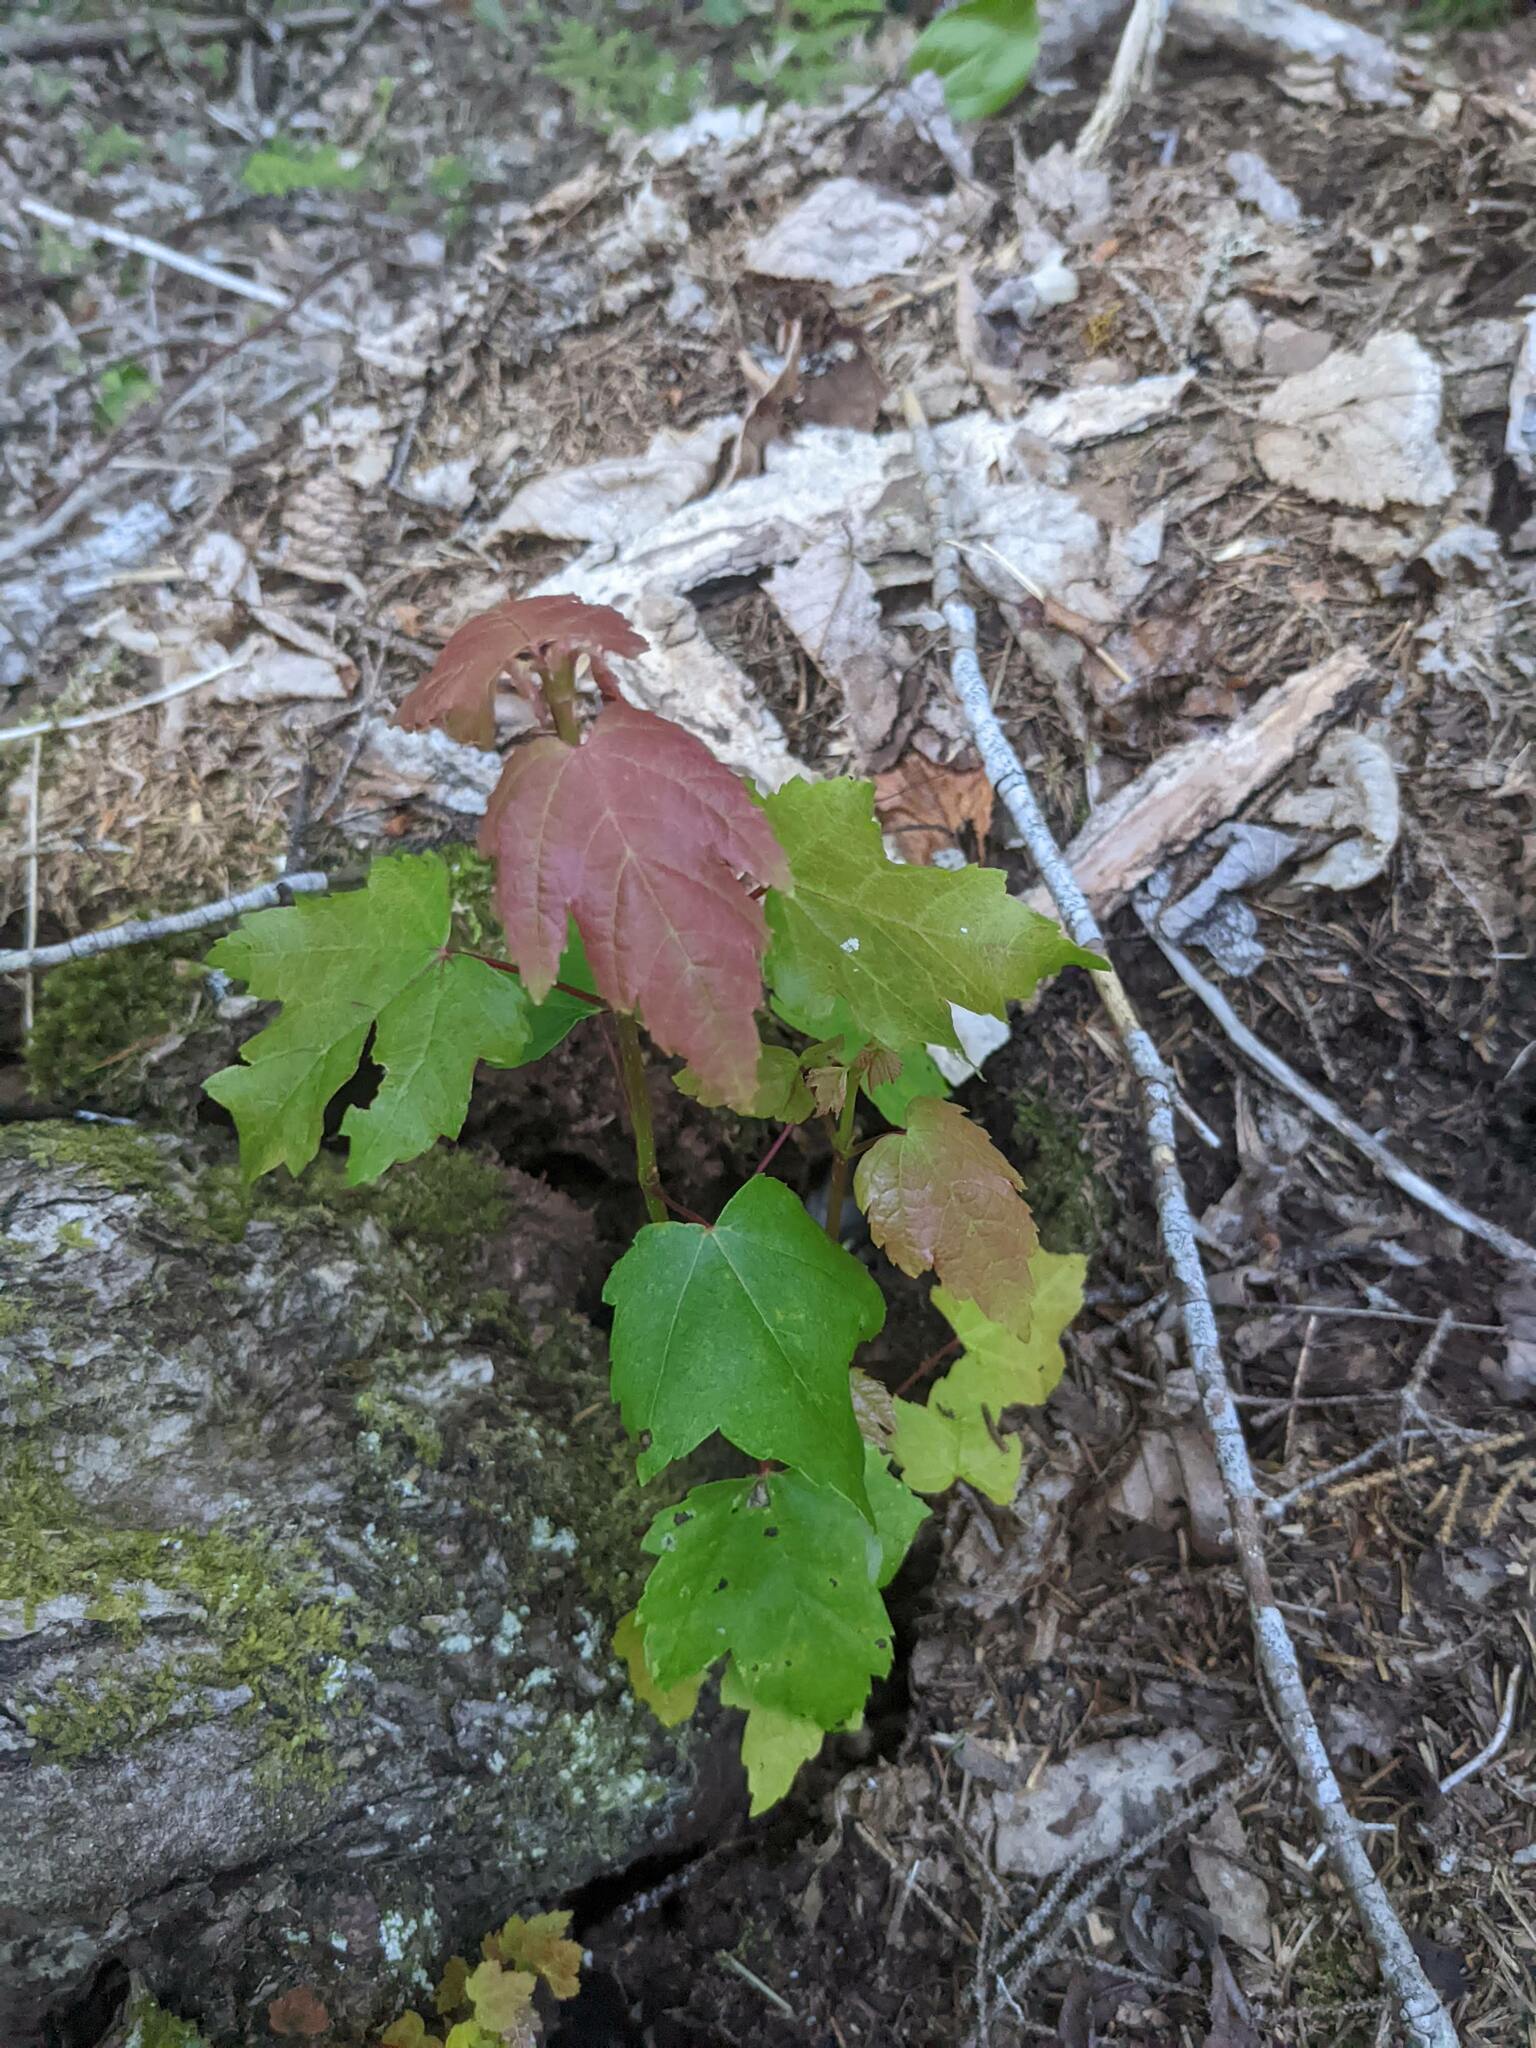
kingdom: Plantae
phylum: Tracheophyta
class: Magnoliopsida
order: Sapindales
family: Sapindaceae
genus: Acer
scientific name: Acer rubrum
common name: Red maple
